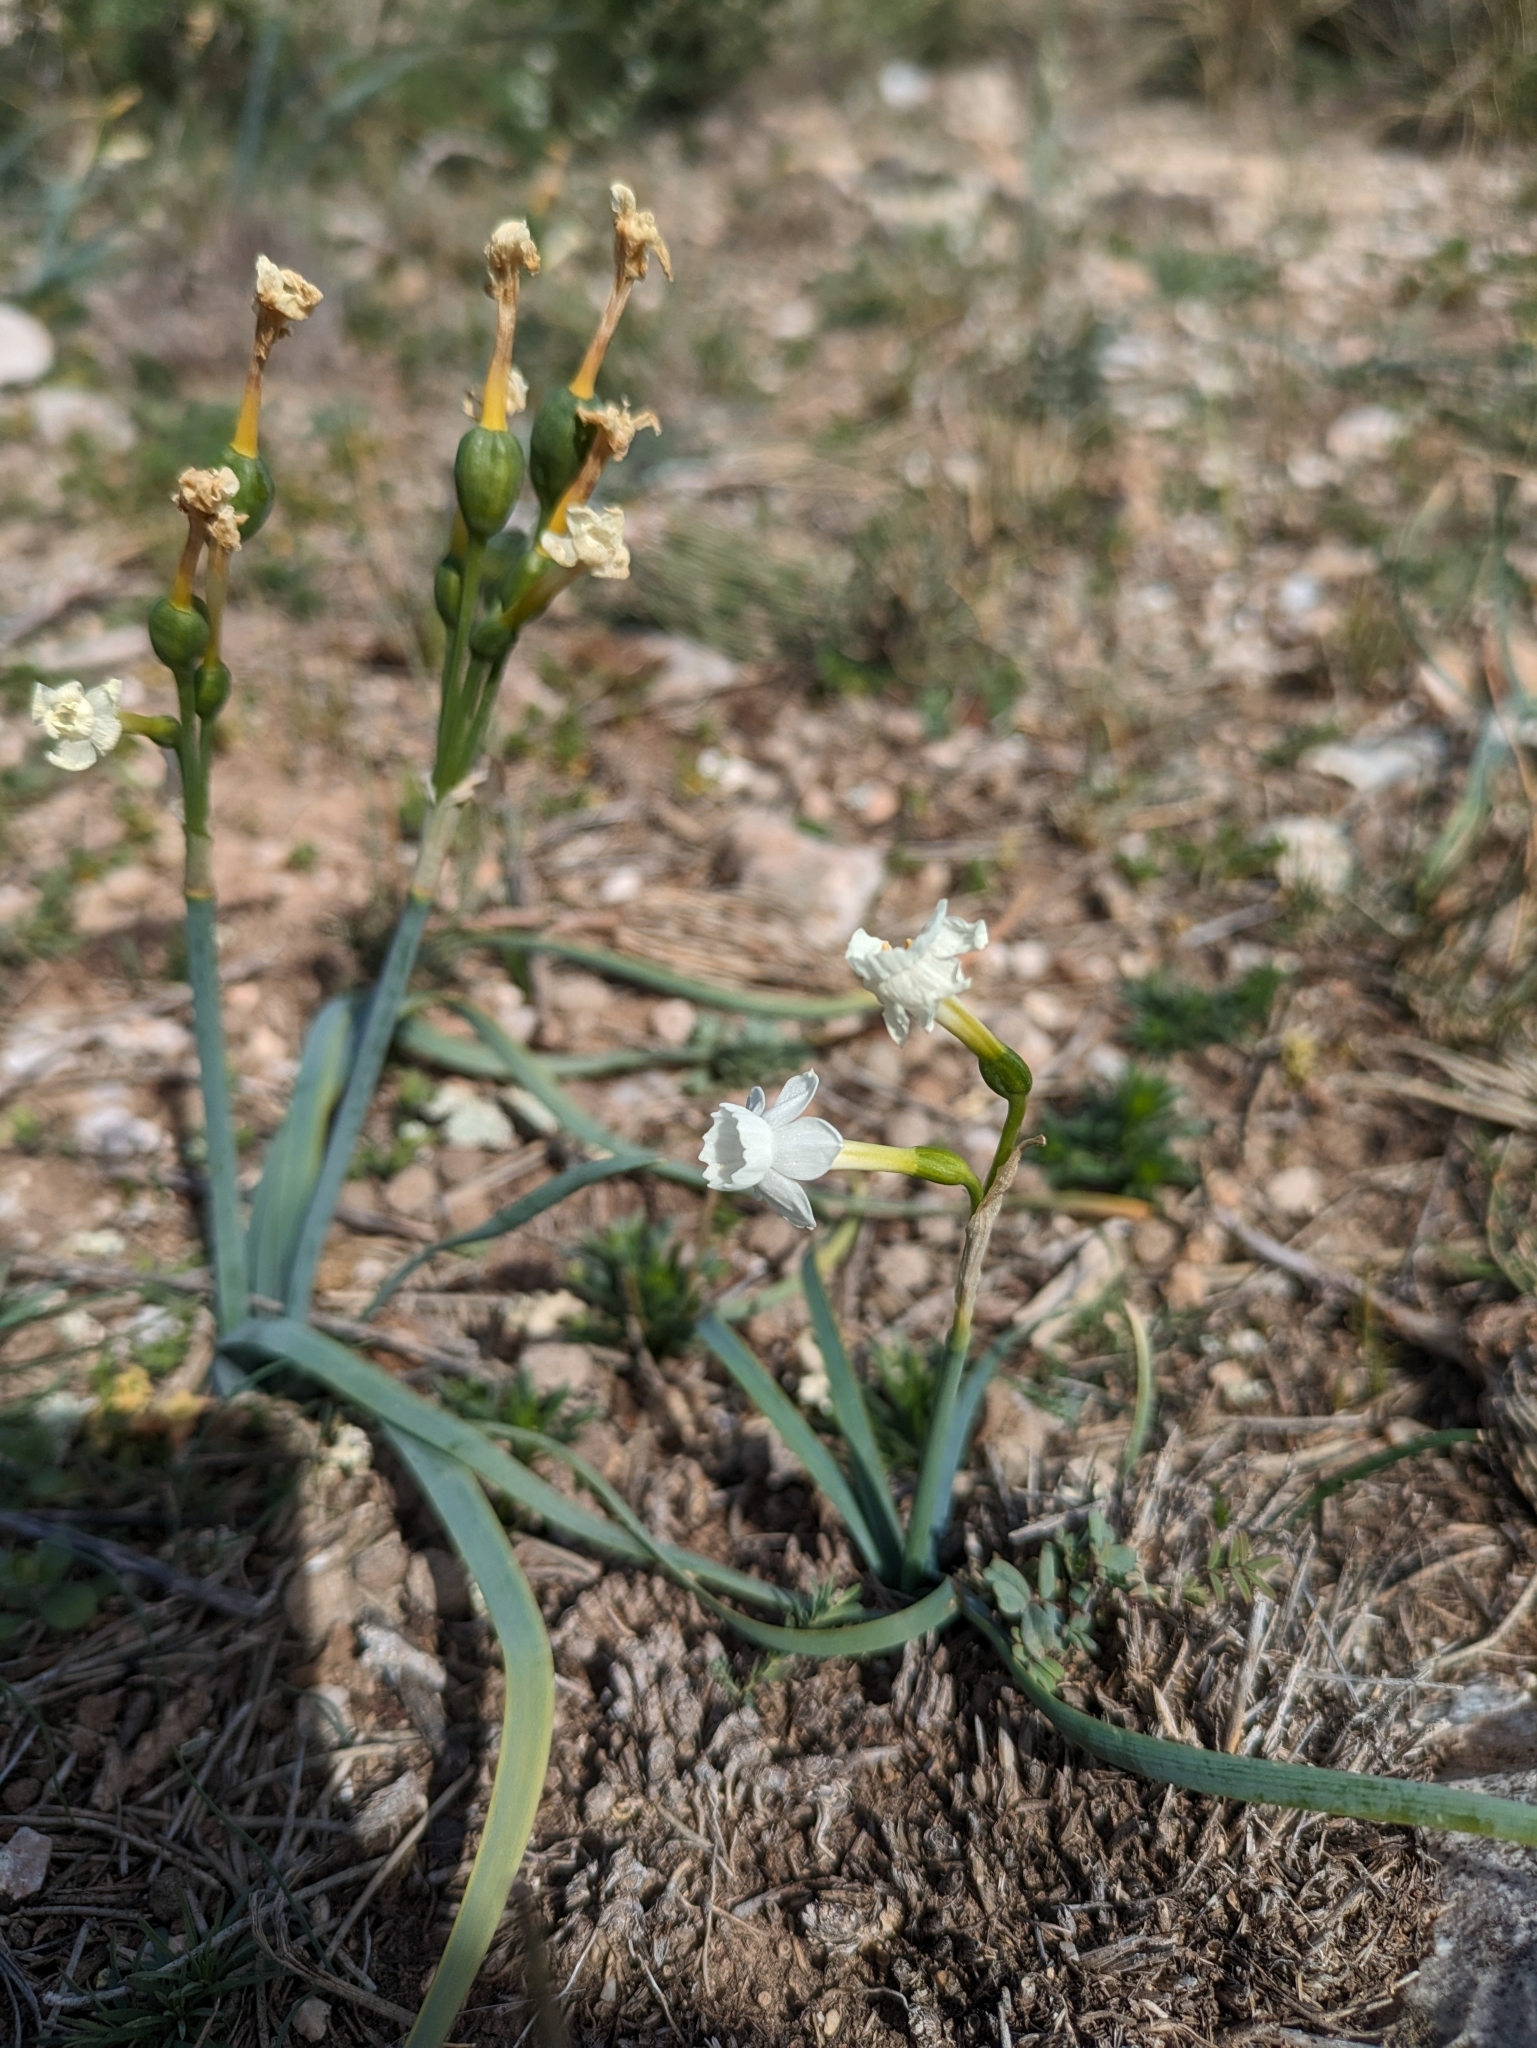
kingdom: Plantae
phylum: Tracheophyta
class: Liliopsida
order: Asparagales
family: Amaryllidaceae
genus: Narcissus
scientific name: Narcissus dubius
